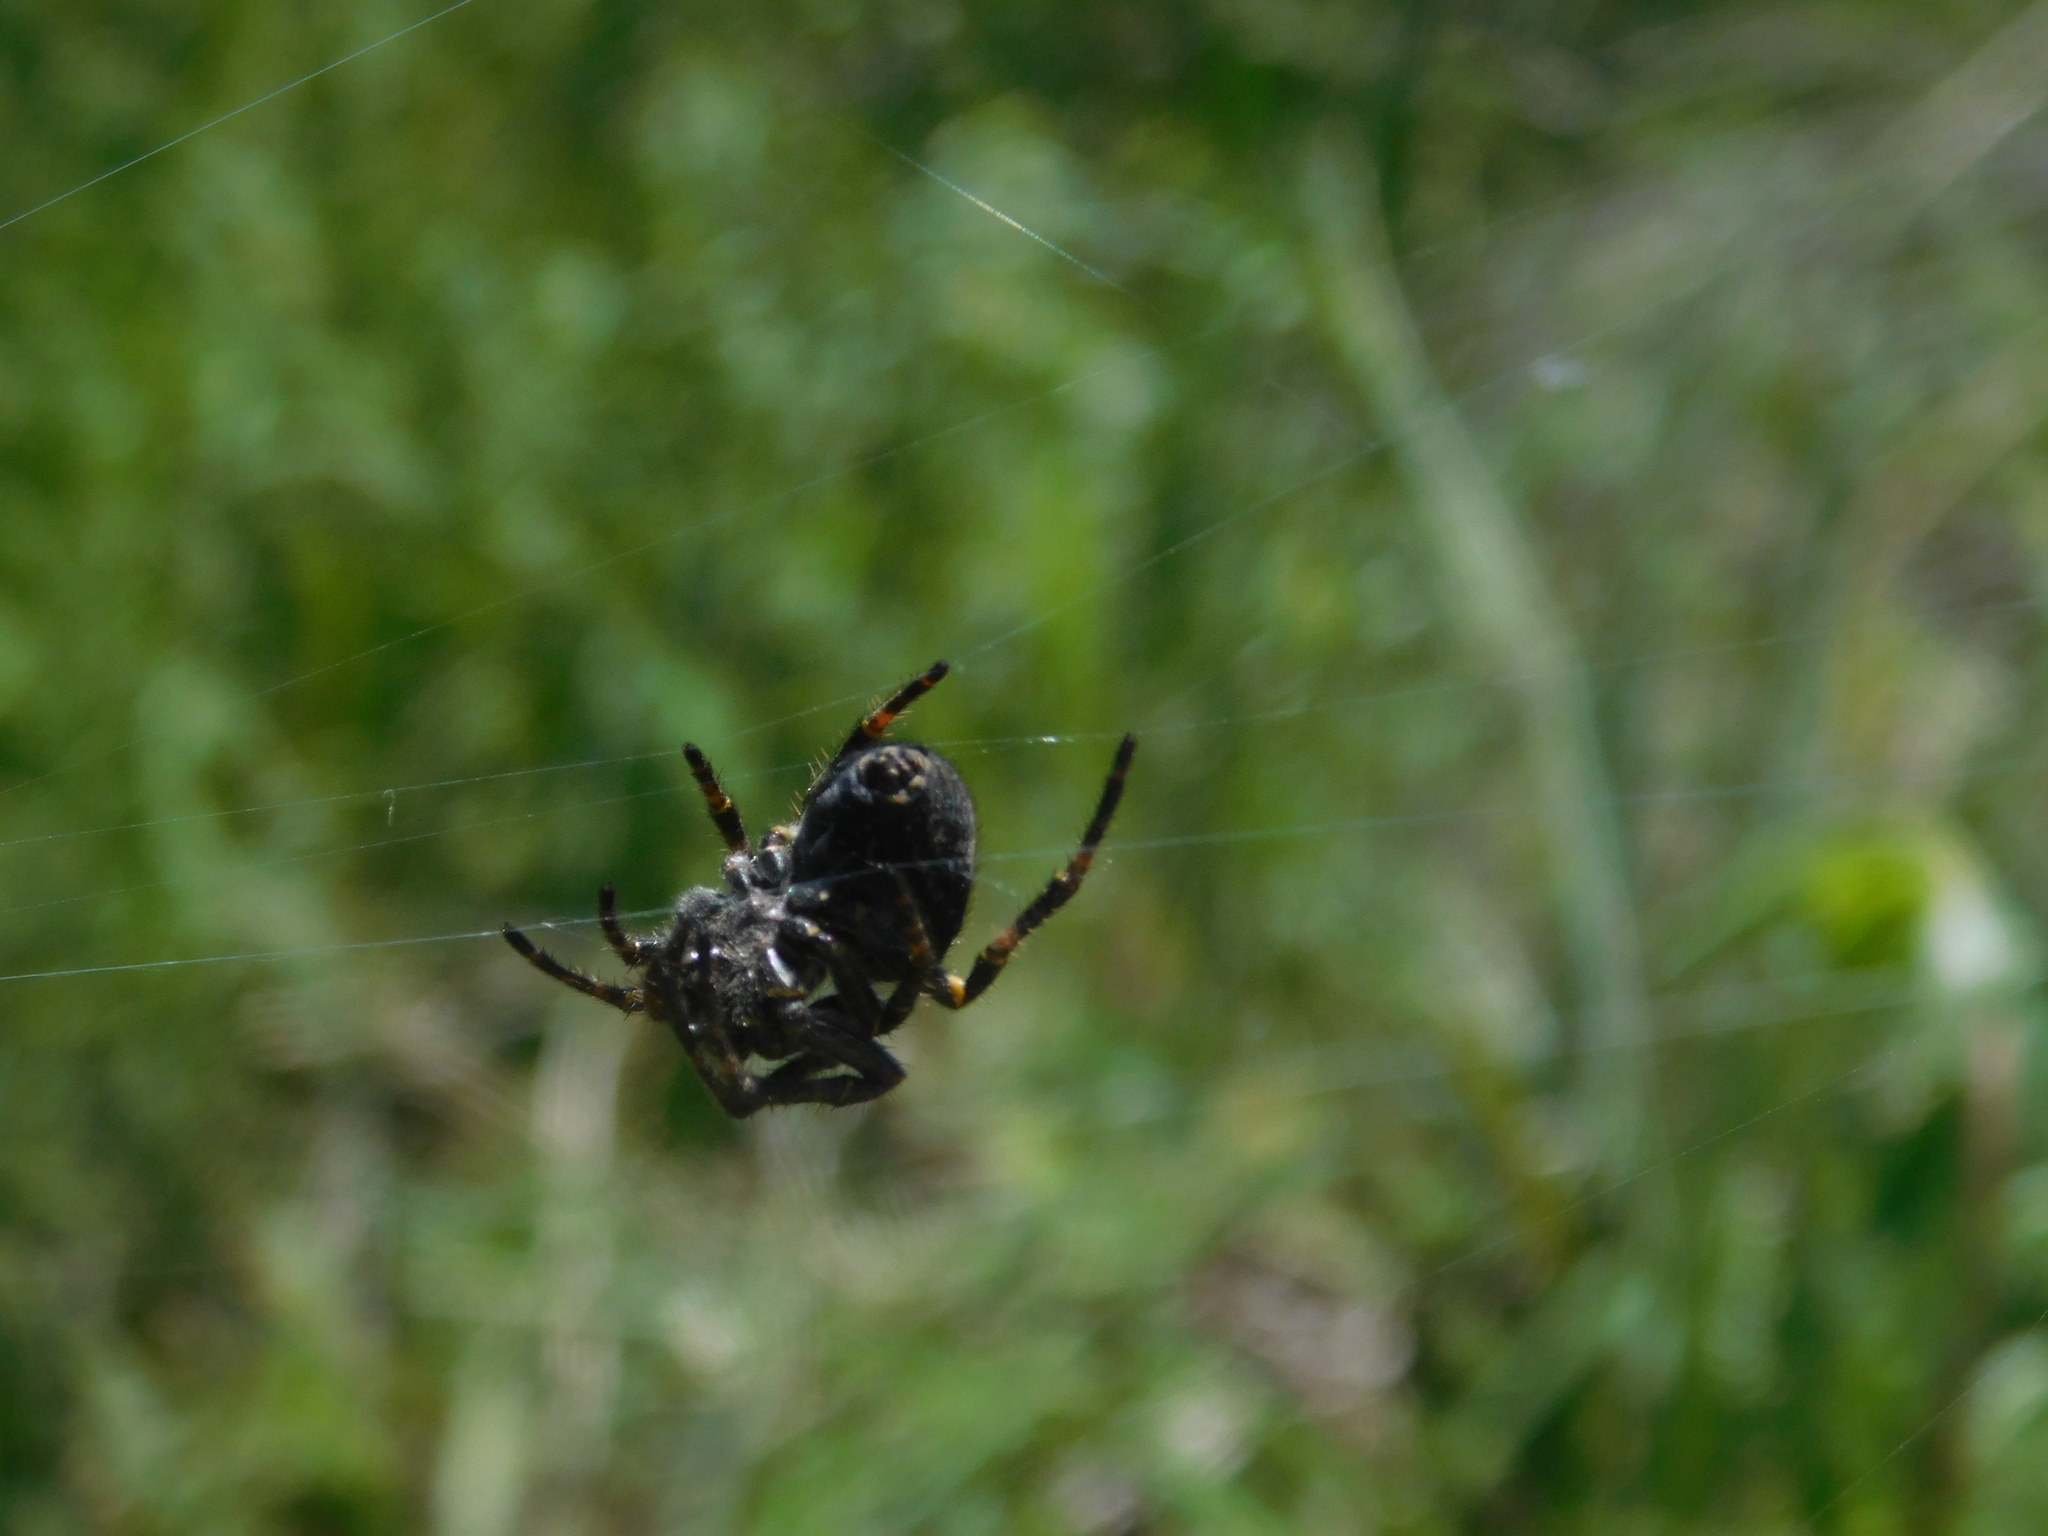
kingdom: Animalia
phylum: Arthropoda
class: Arachnida
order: Araneae
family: Araneidae
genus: Parawixia
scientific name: Parawixia bistriata
